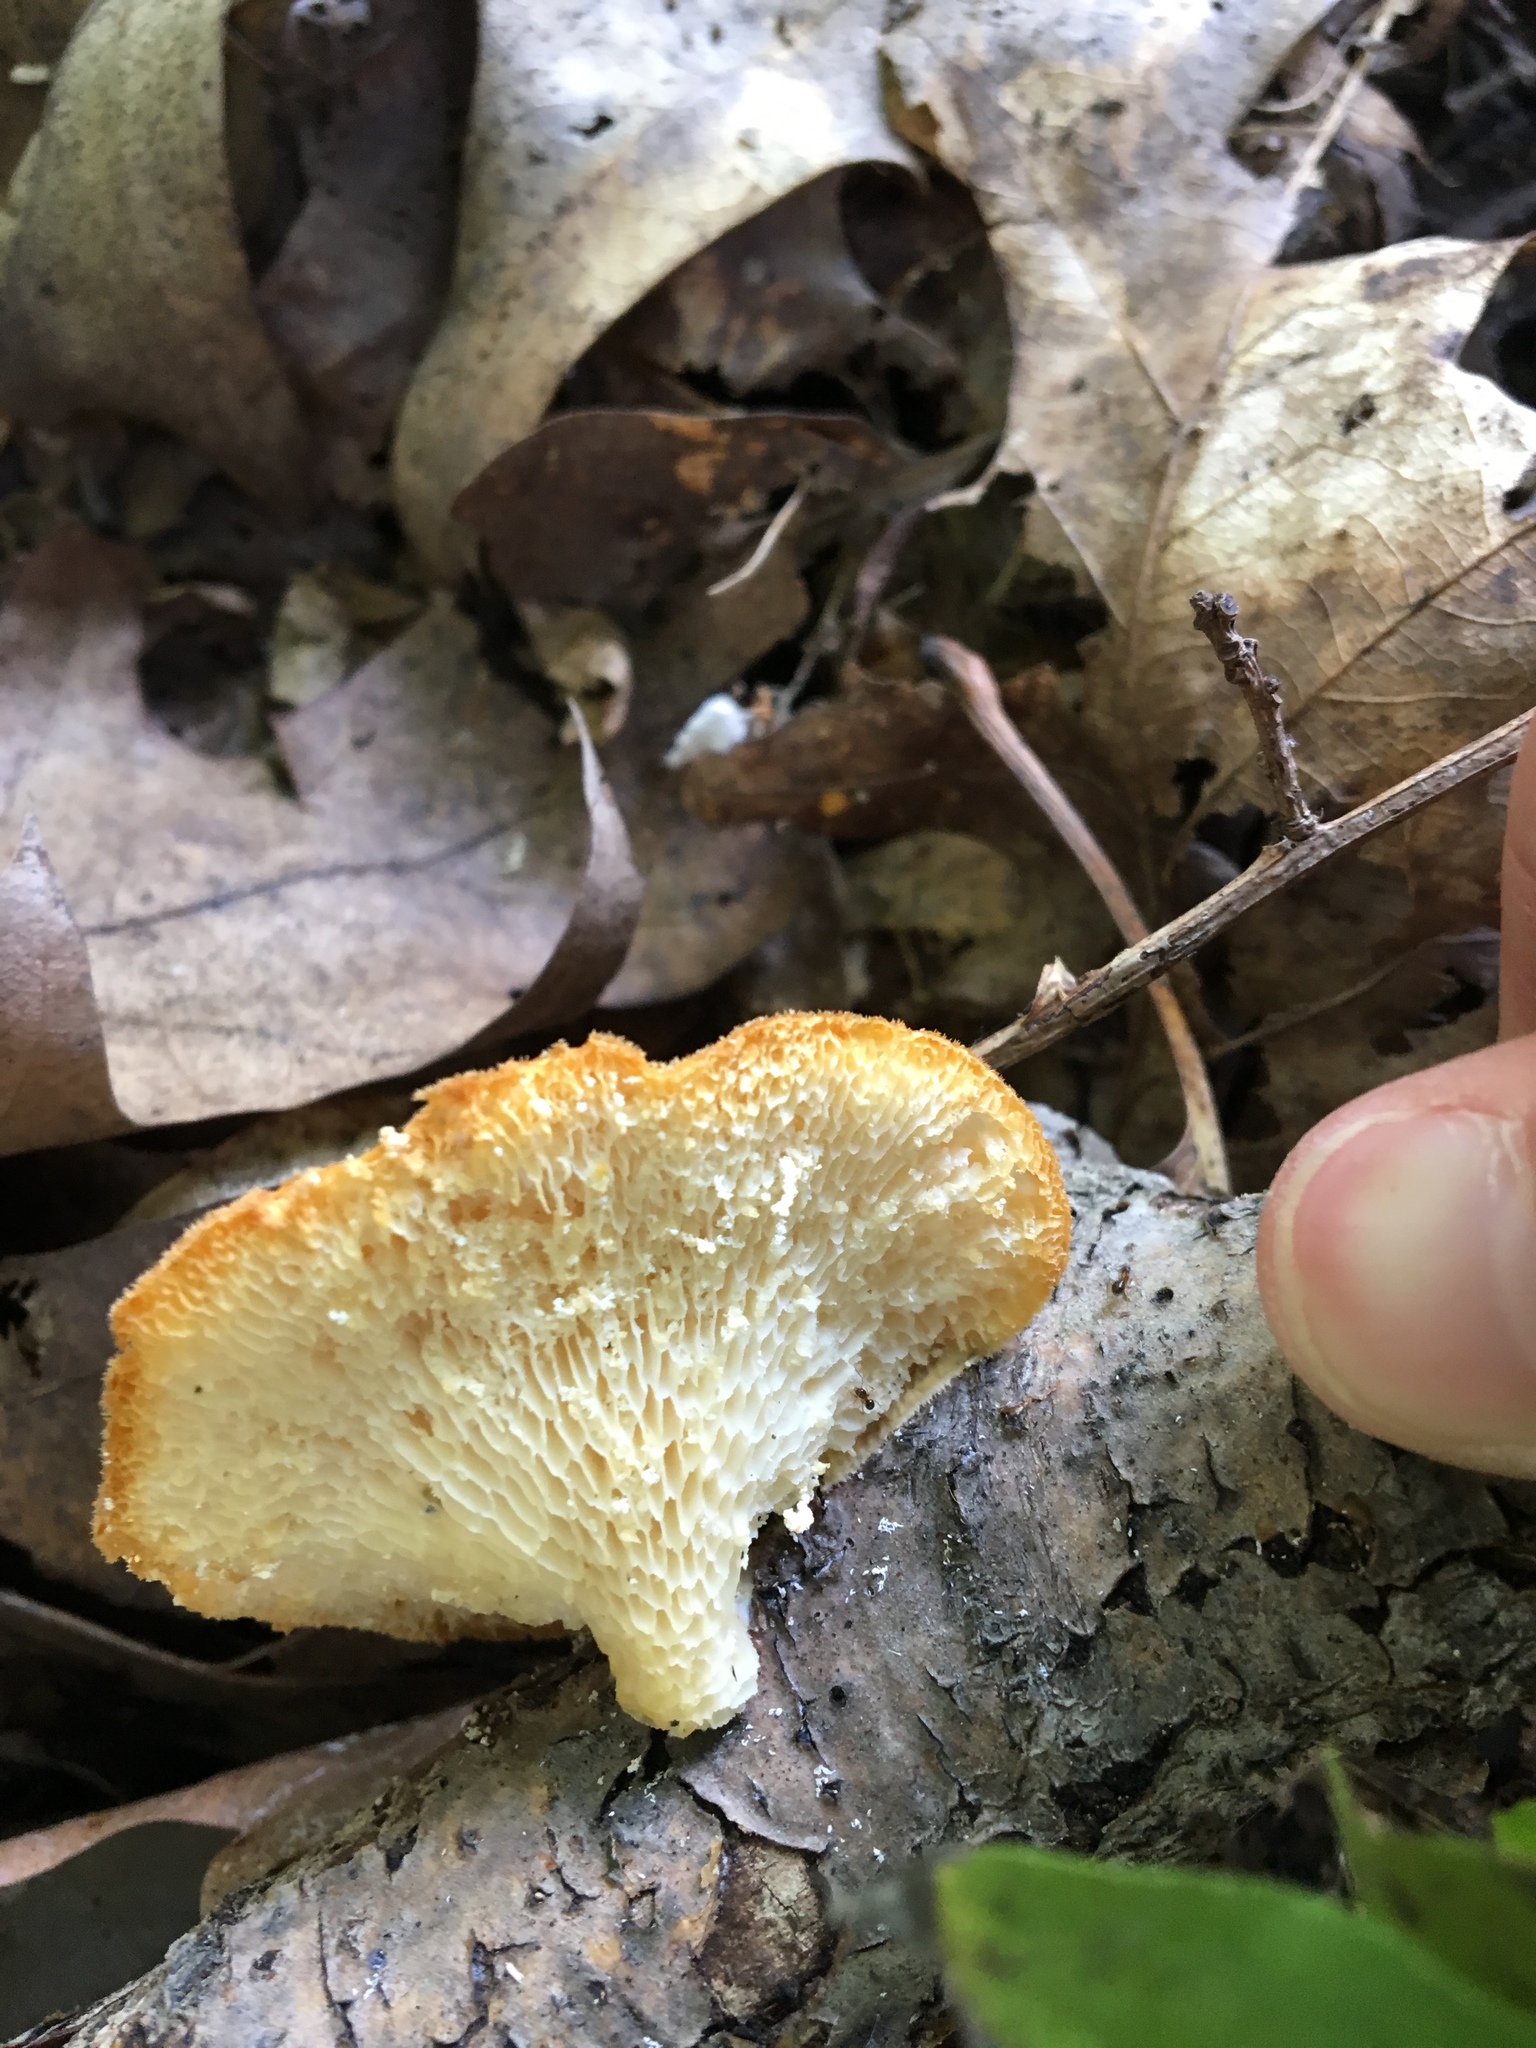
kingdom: Fungi
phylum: Basidiomycota
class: Agaricomycetes
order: Polyporales
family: Polyporaceae
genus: Neofavolus
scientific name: Neofavolus alveolaris
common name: Hexagonal-pored polypore
